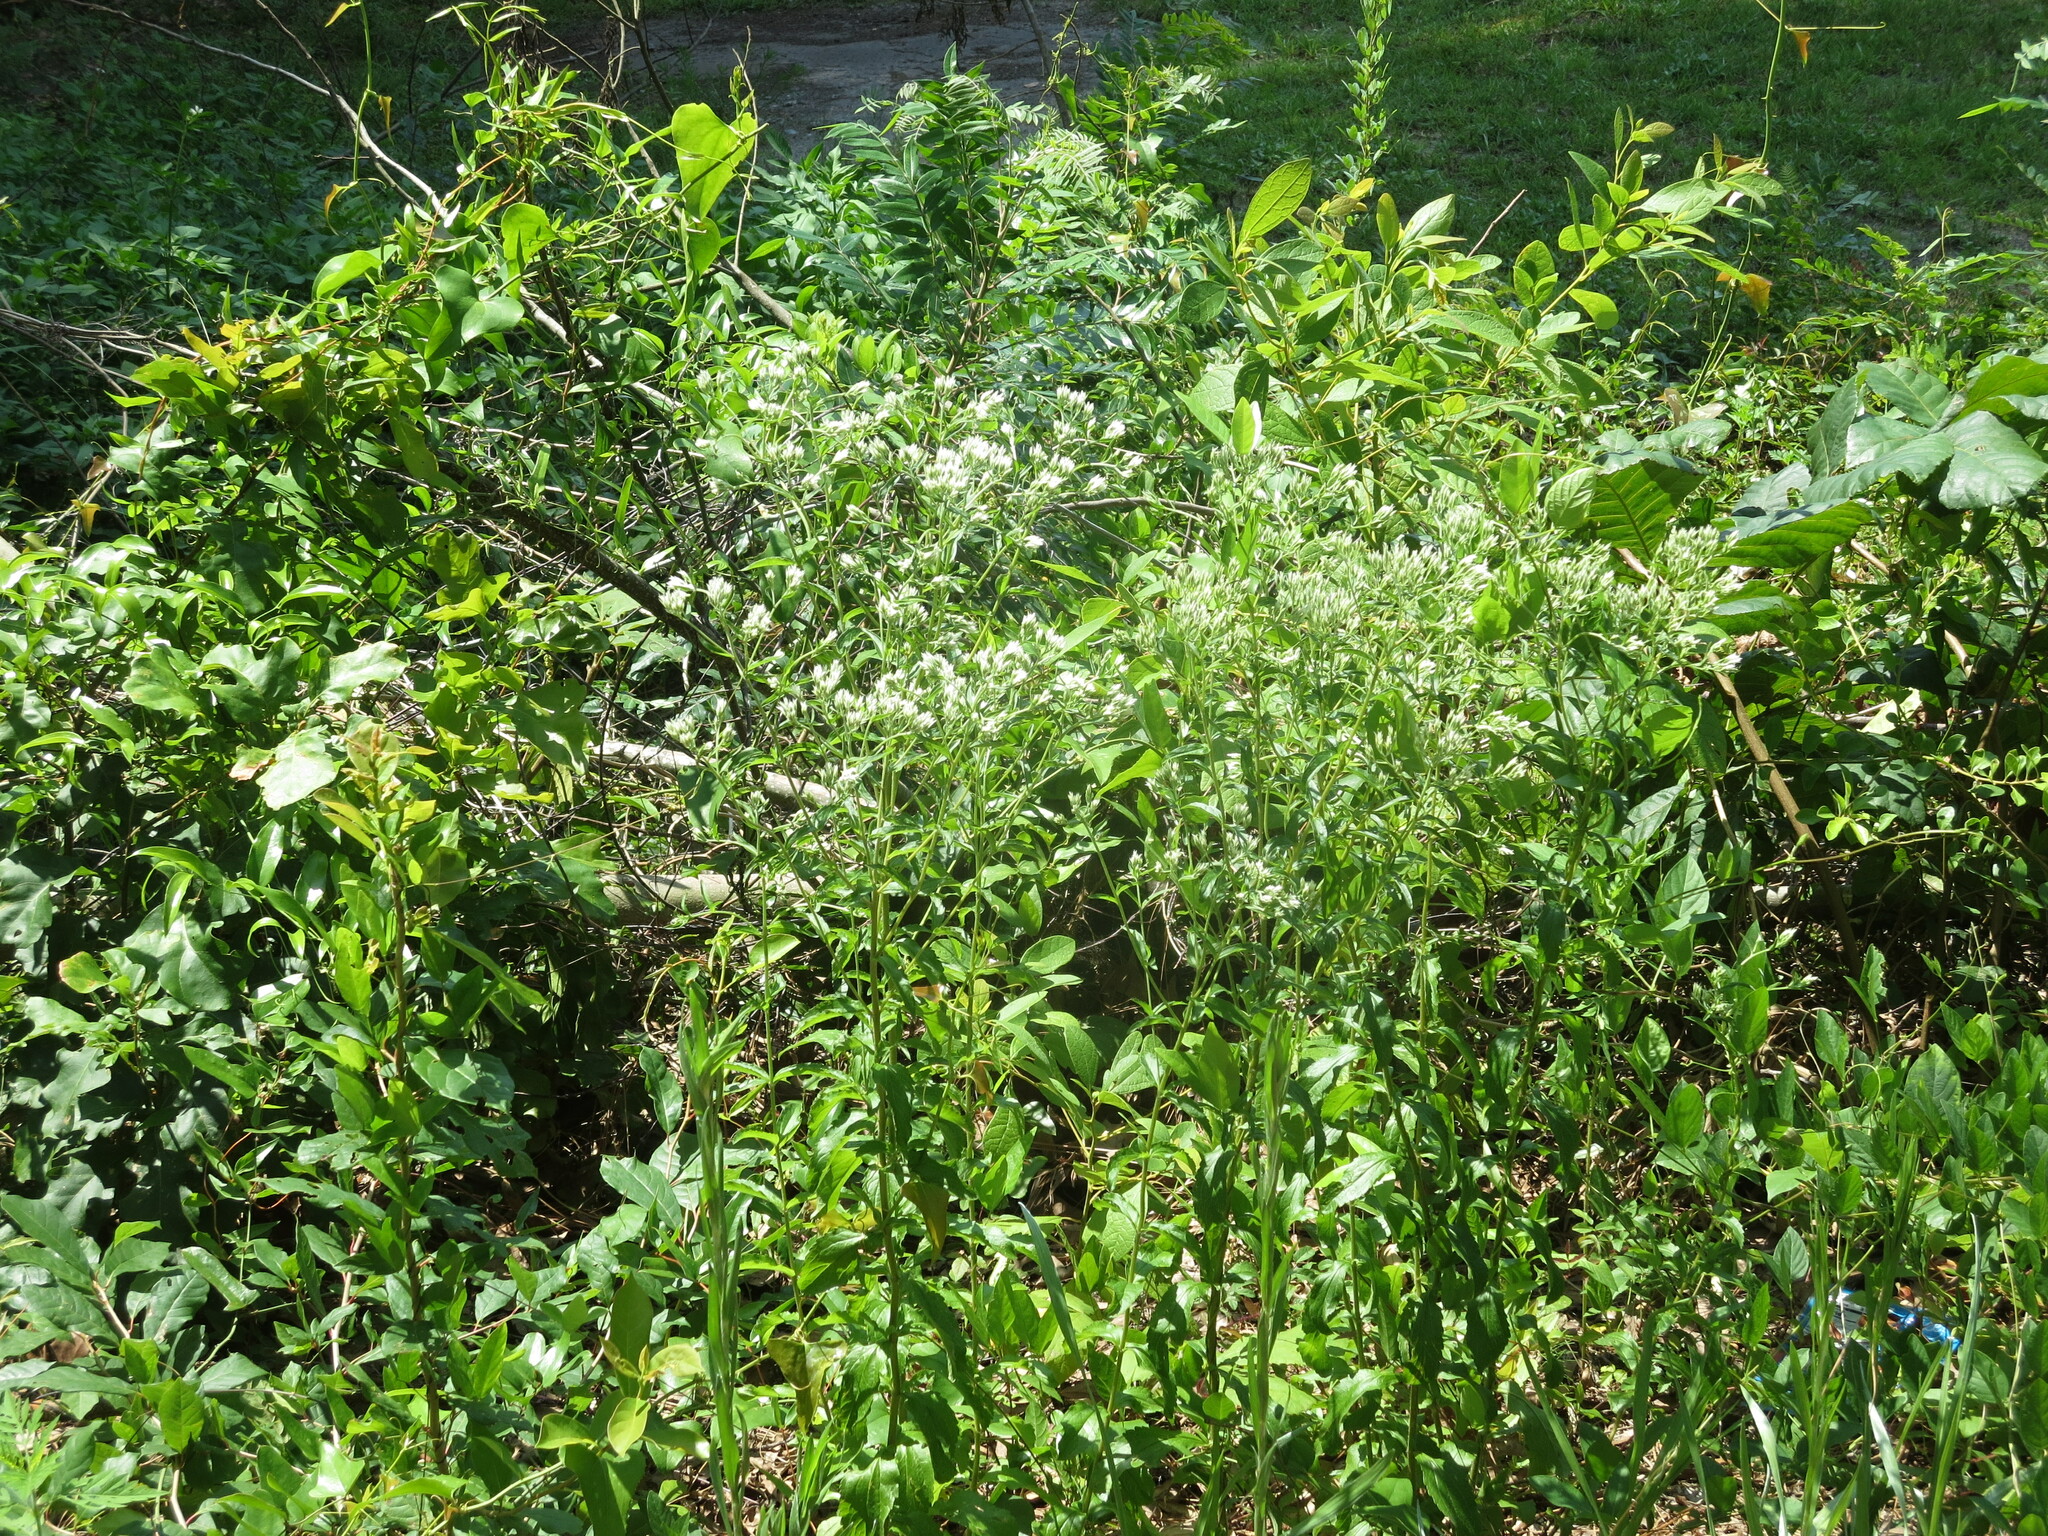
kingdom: Plantae
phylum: Tracheophyta
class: Magnoliopsida
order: Asterales
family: Asteraceae
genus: Eupatorium
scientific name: Eupatorium serotinum
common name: Late boneset
